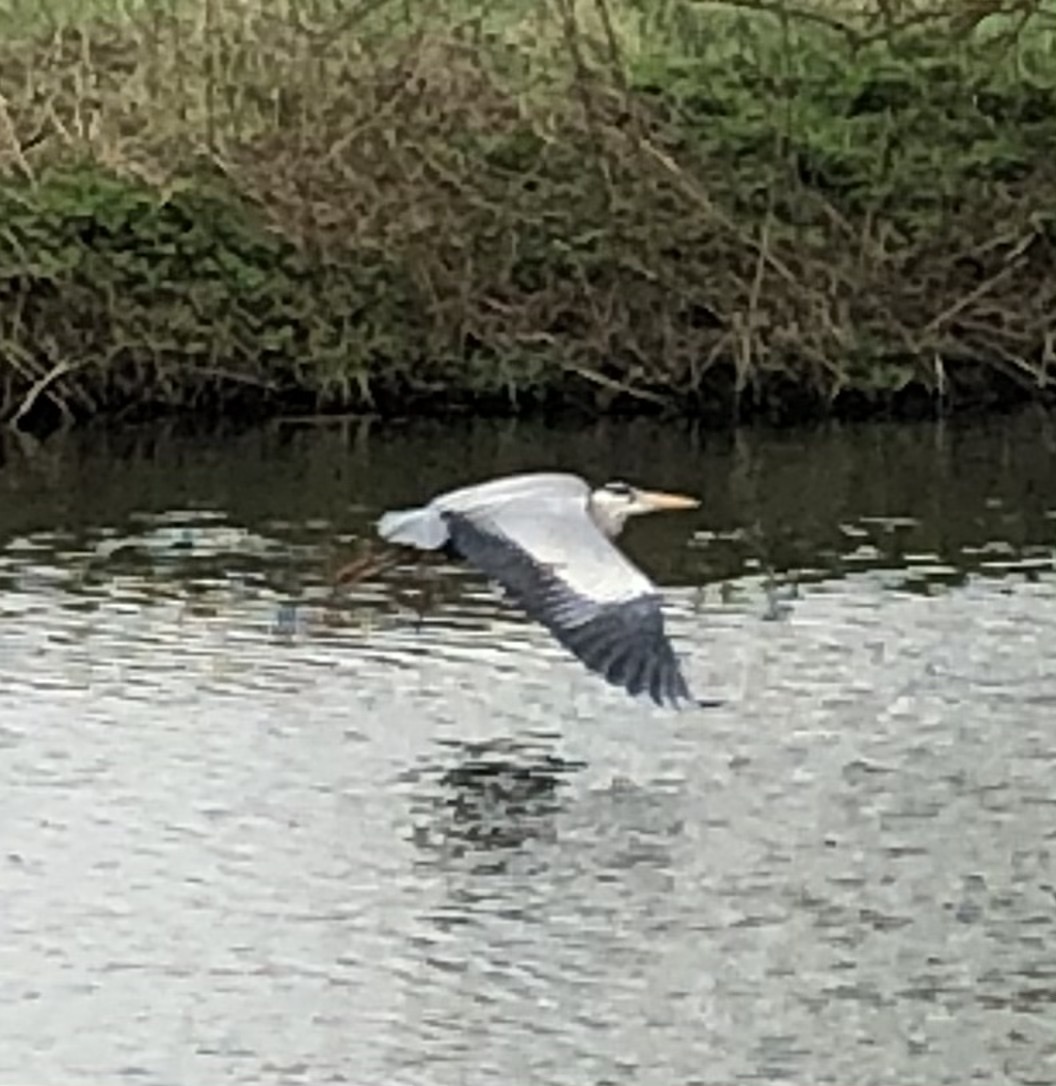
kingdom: Animalia
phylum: Chordata
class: Aves
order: Pelecaniformes
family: Ardeidae
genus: Ardea
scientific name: Ardea cinerea
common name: Grey heron
